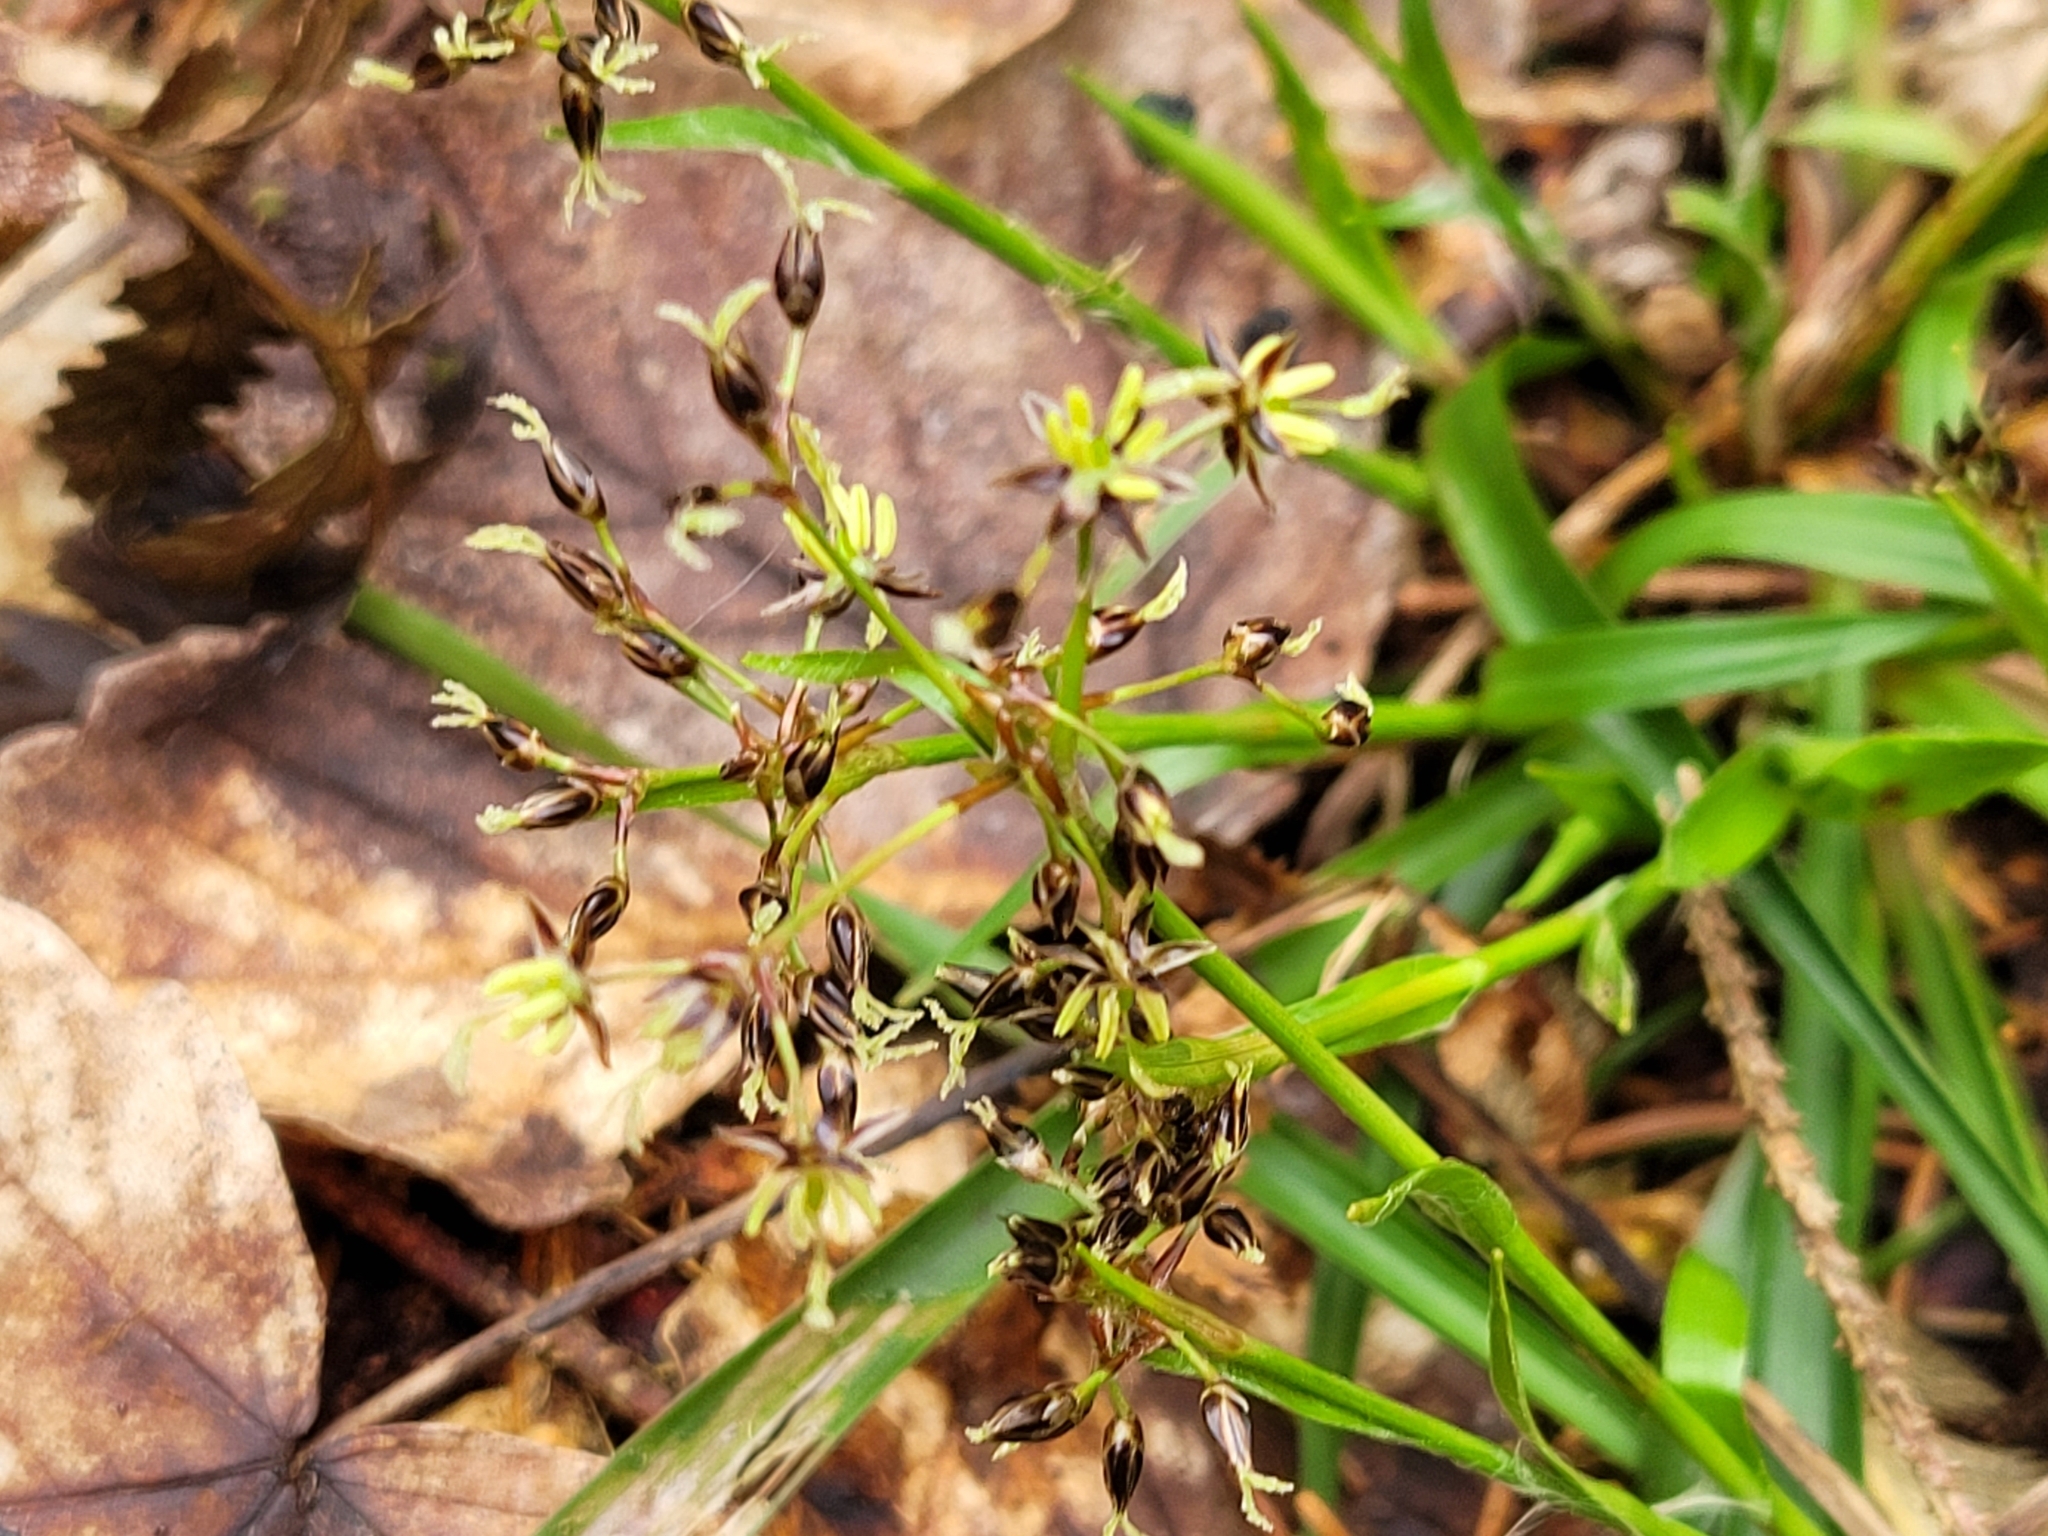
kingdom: Plantae
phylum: Tracheophyta
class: Liliopsida
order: Poales
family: Juncaceae
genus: Luzula
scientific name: Luzula pilosa
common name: Hairy wood-rush
